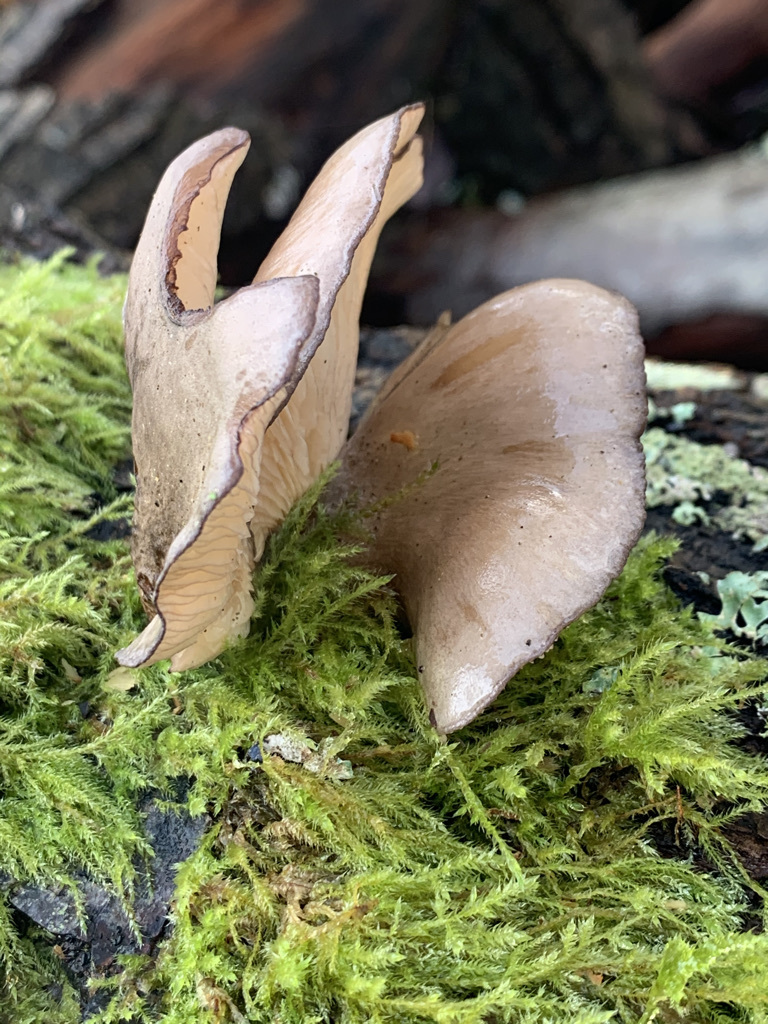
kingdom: Fungi
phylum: Basidiomycota
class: Agaricomycetes
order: Agaricales
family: Sarcomyxaceae
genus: Sarcomyxa
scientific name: Sarcomyxa serotina
